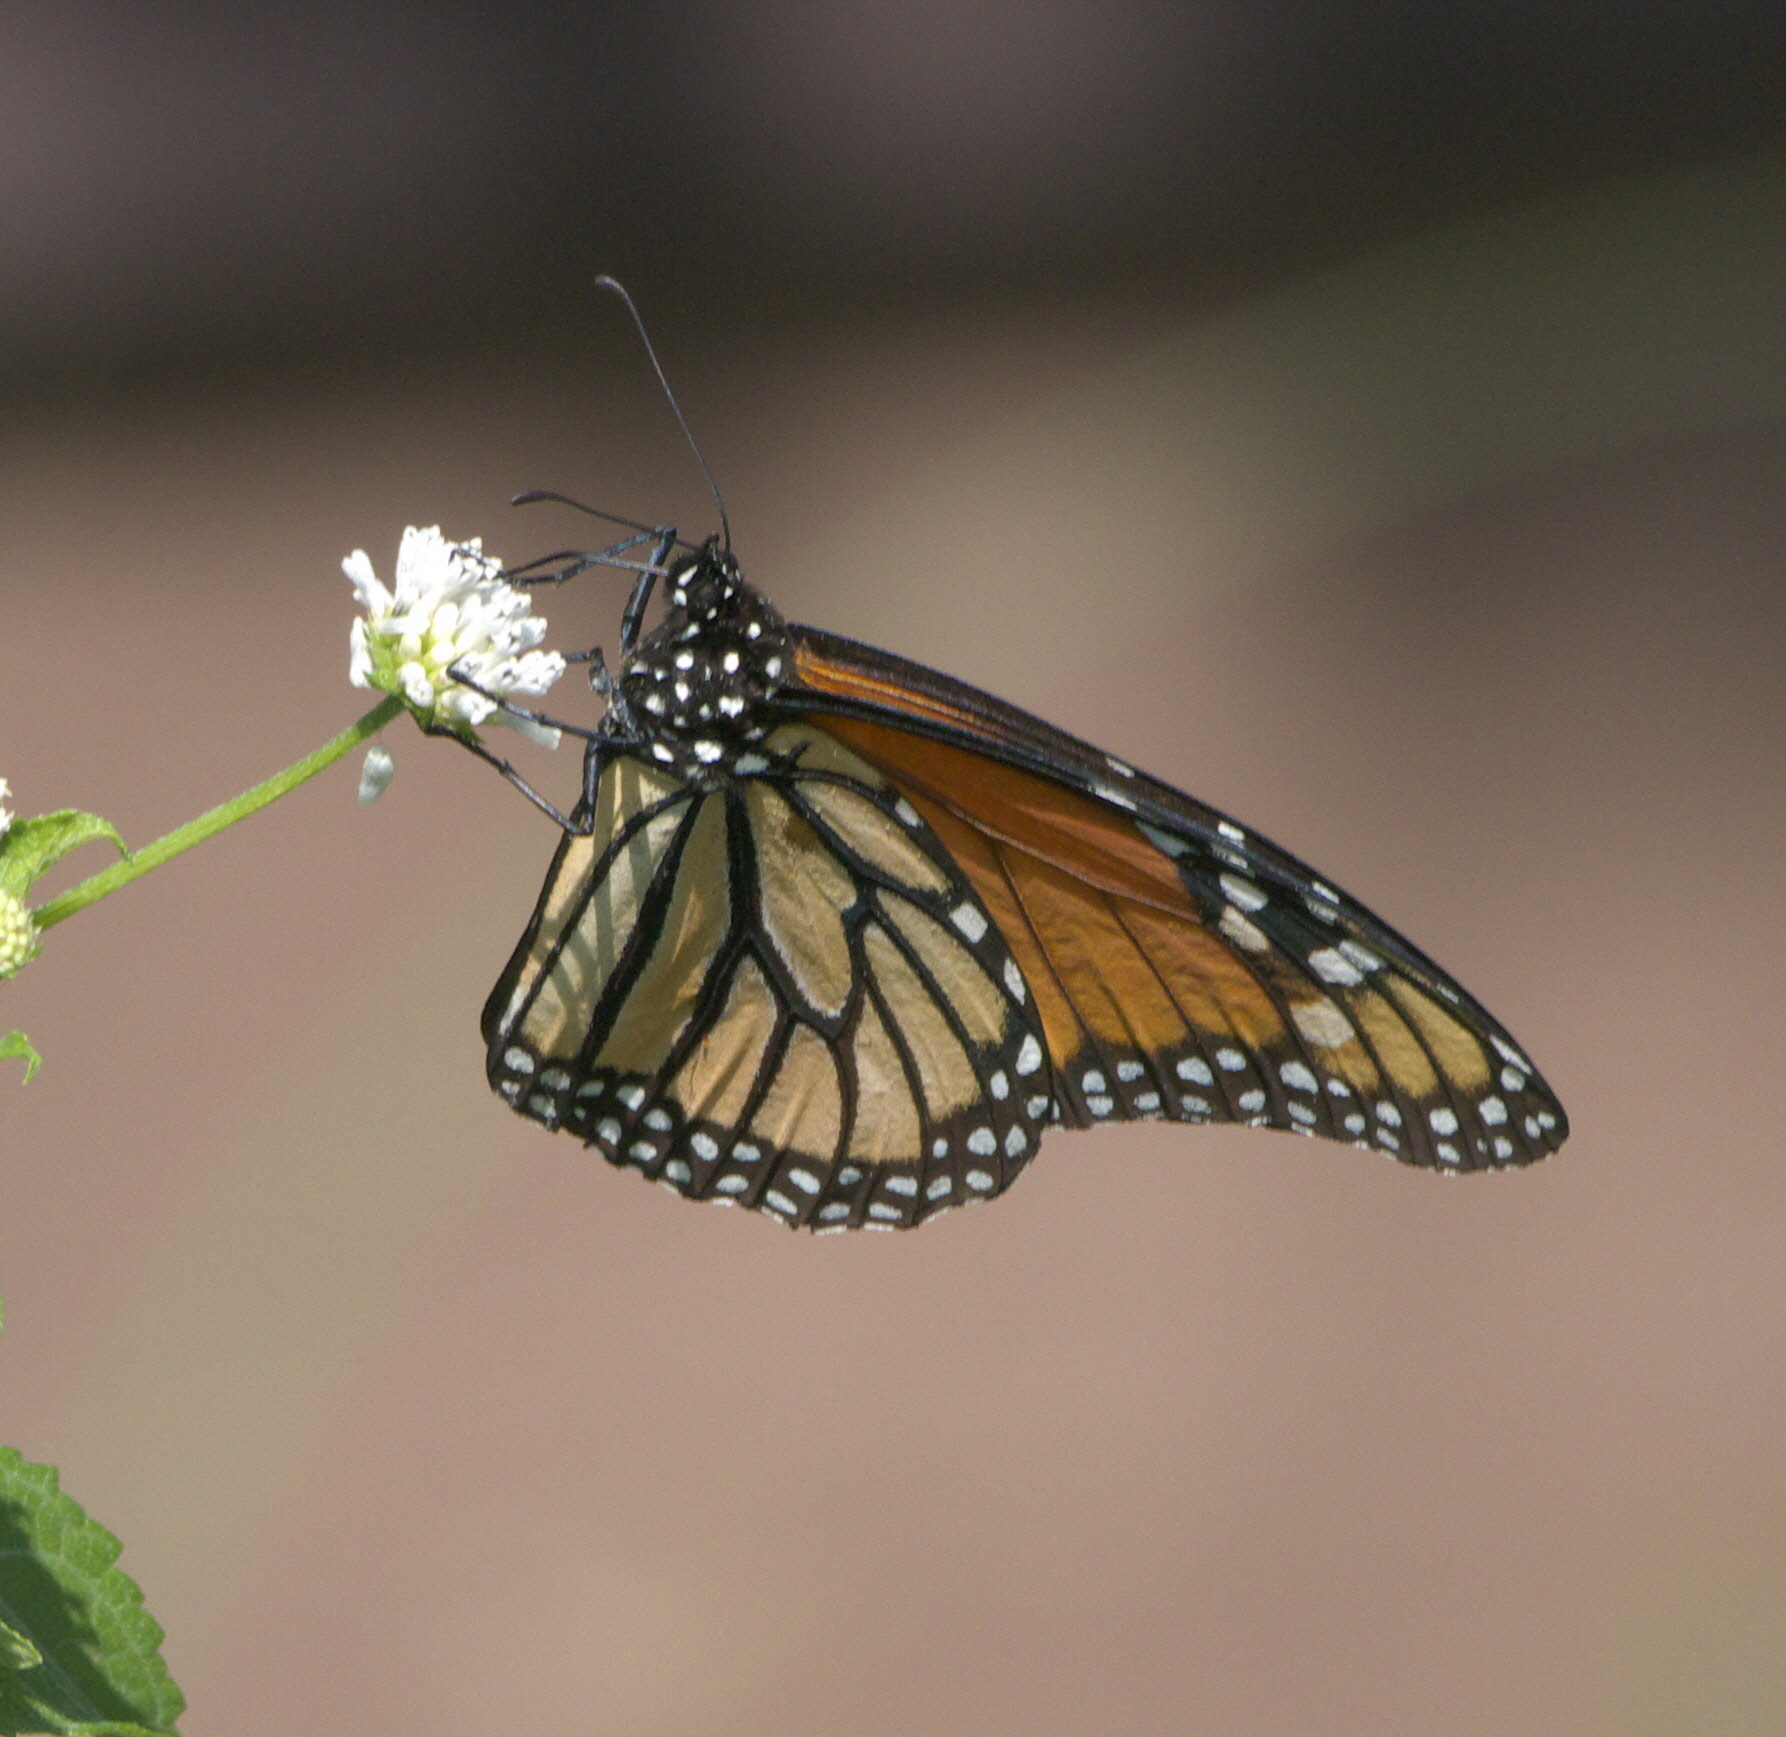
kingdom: Animalia
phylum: Arthropoda
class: Insecta
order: Lepidoptera
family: Nymphalidae
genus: Danaus
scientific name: Danaus plexippus
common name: Monarch
